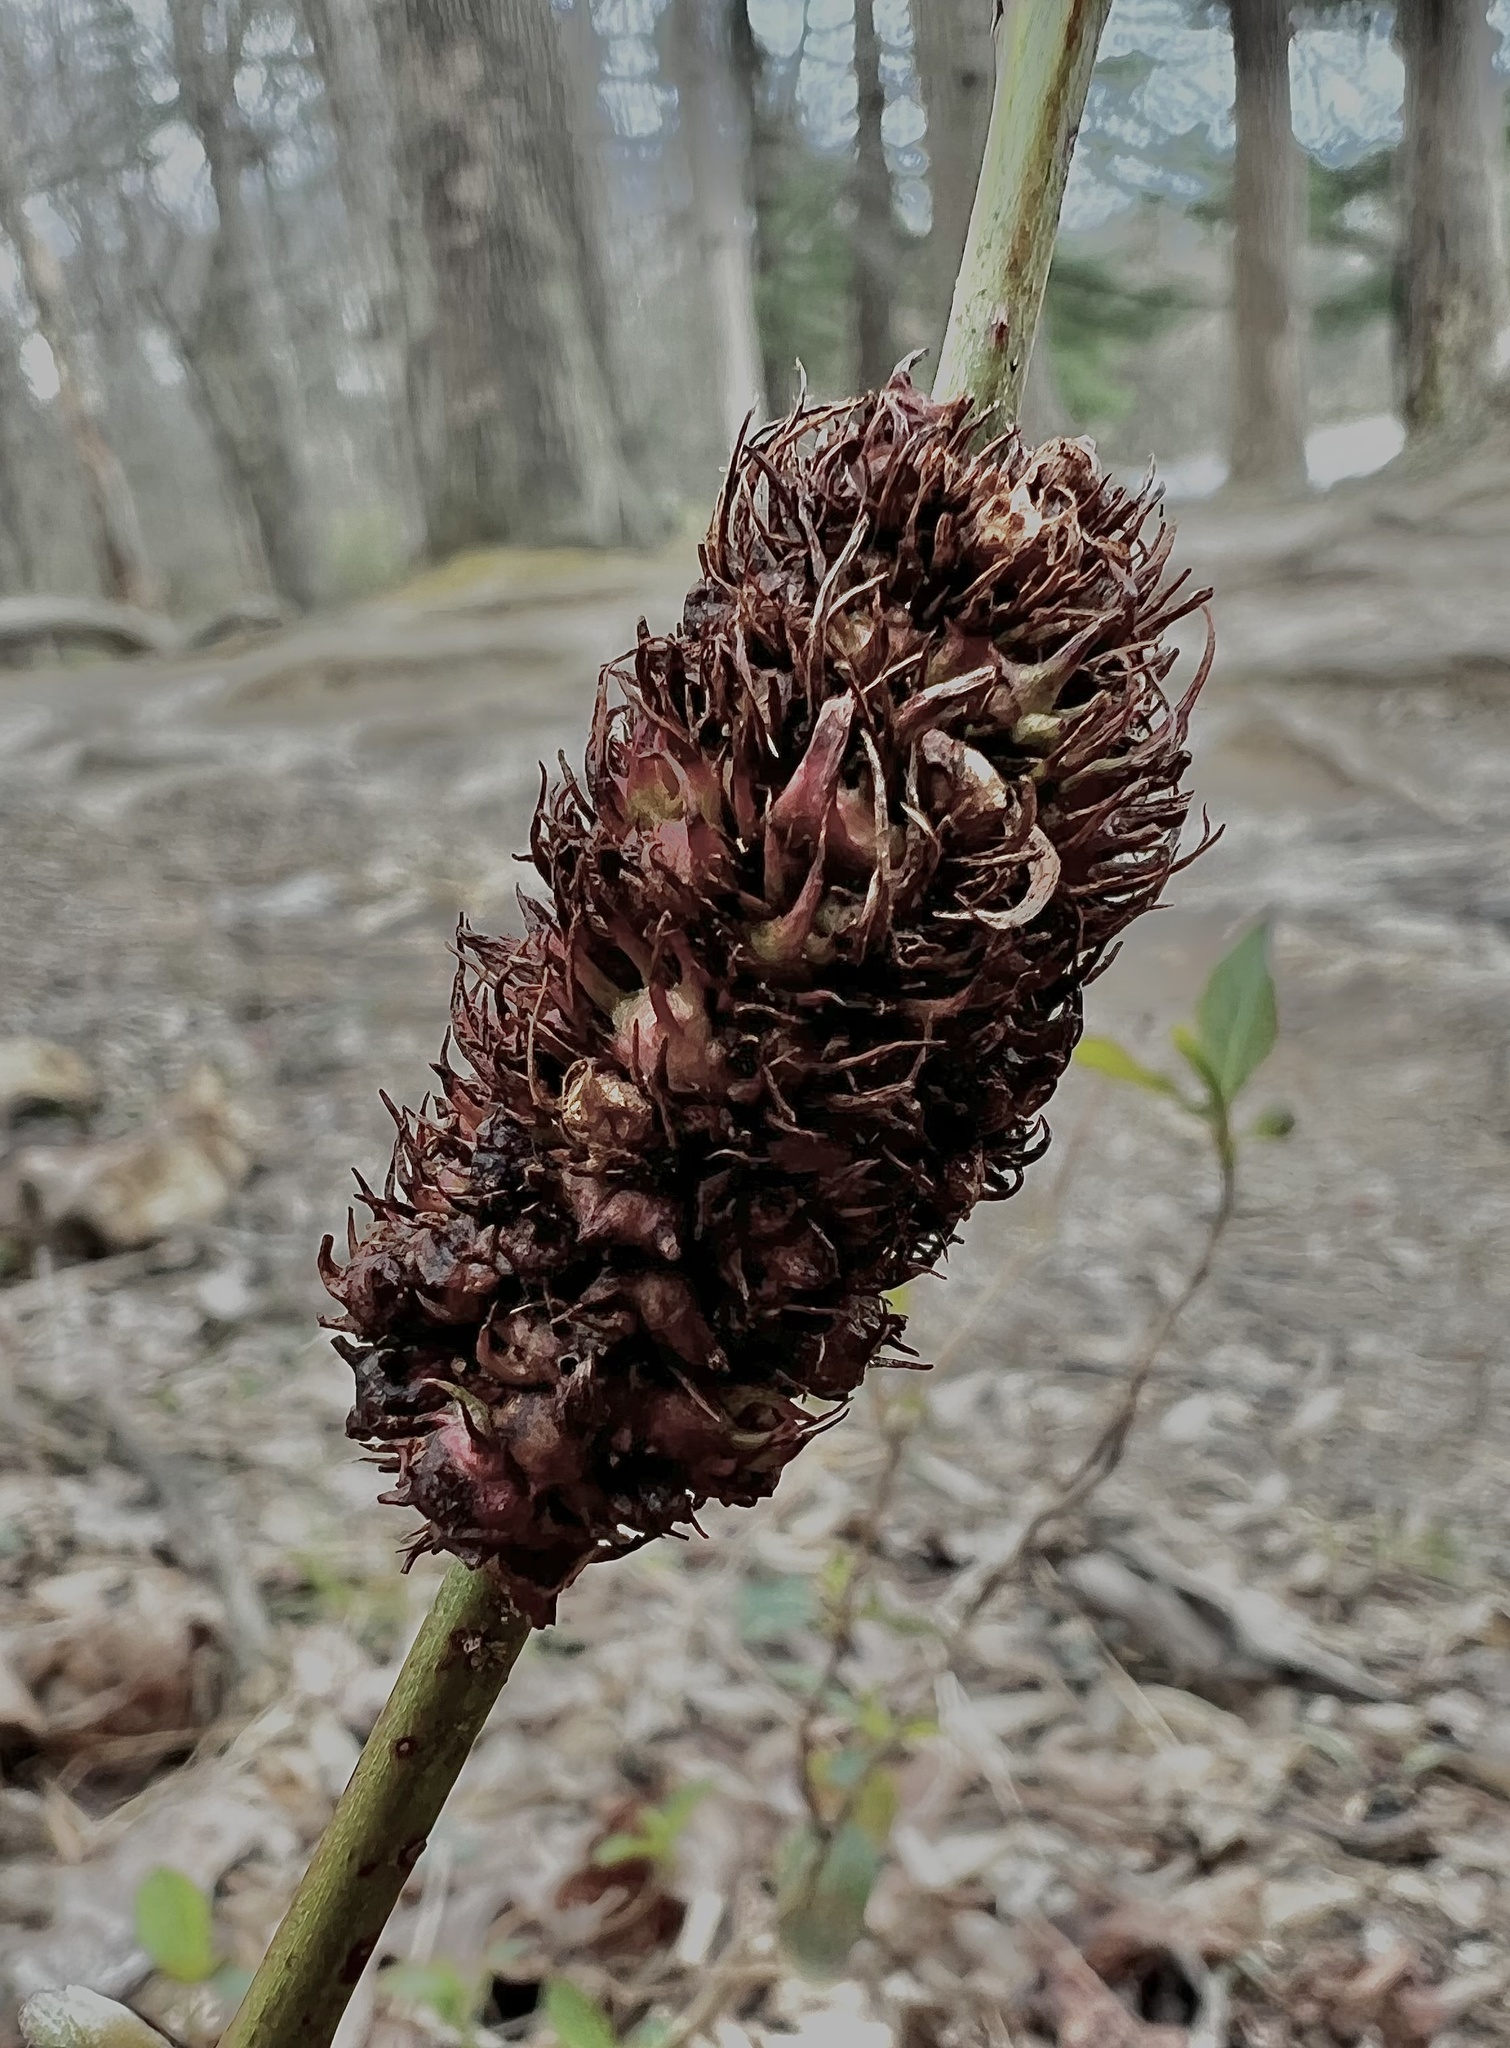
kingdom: Animalia
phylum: Arthropoda
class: Insecta
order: Hymenoptera
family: Cynipidae
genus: Diastrophus
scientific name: Diastrophus
